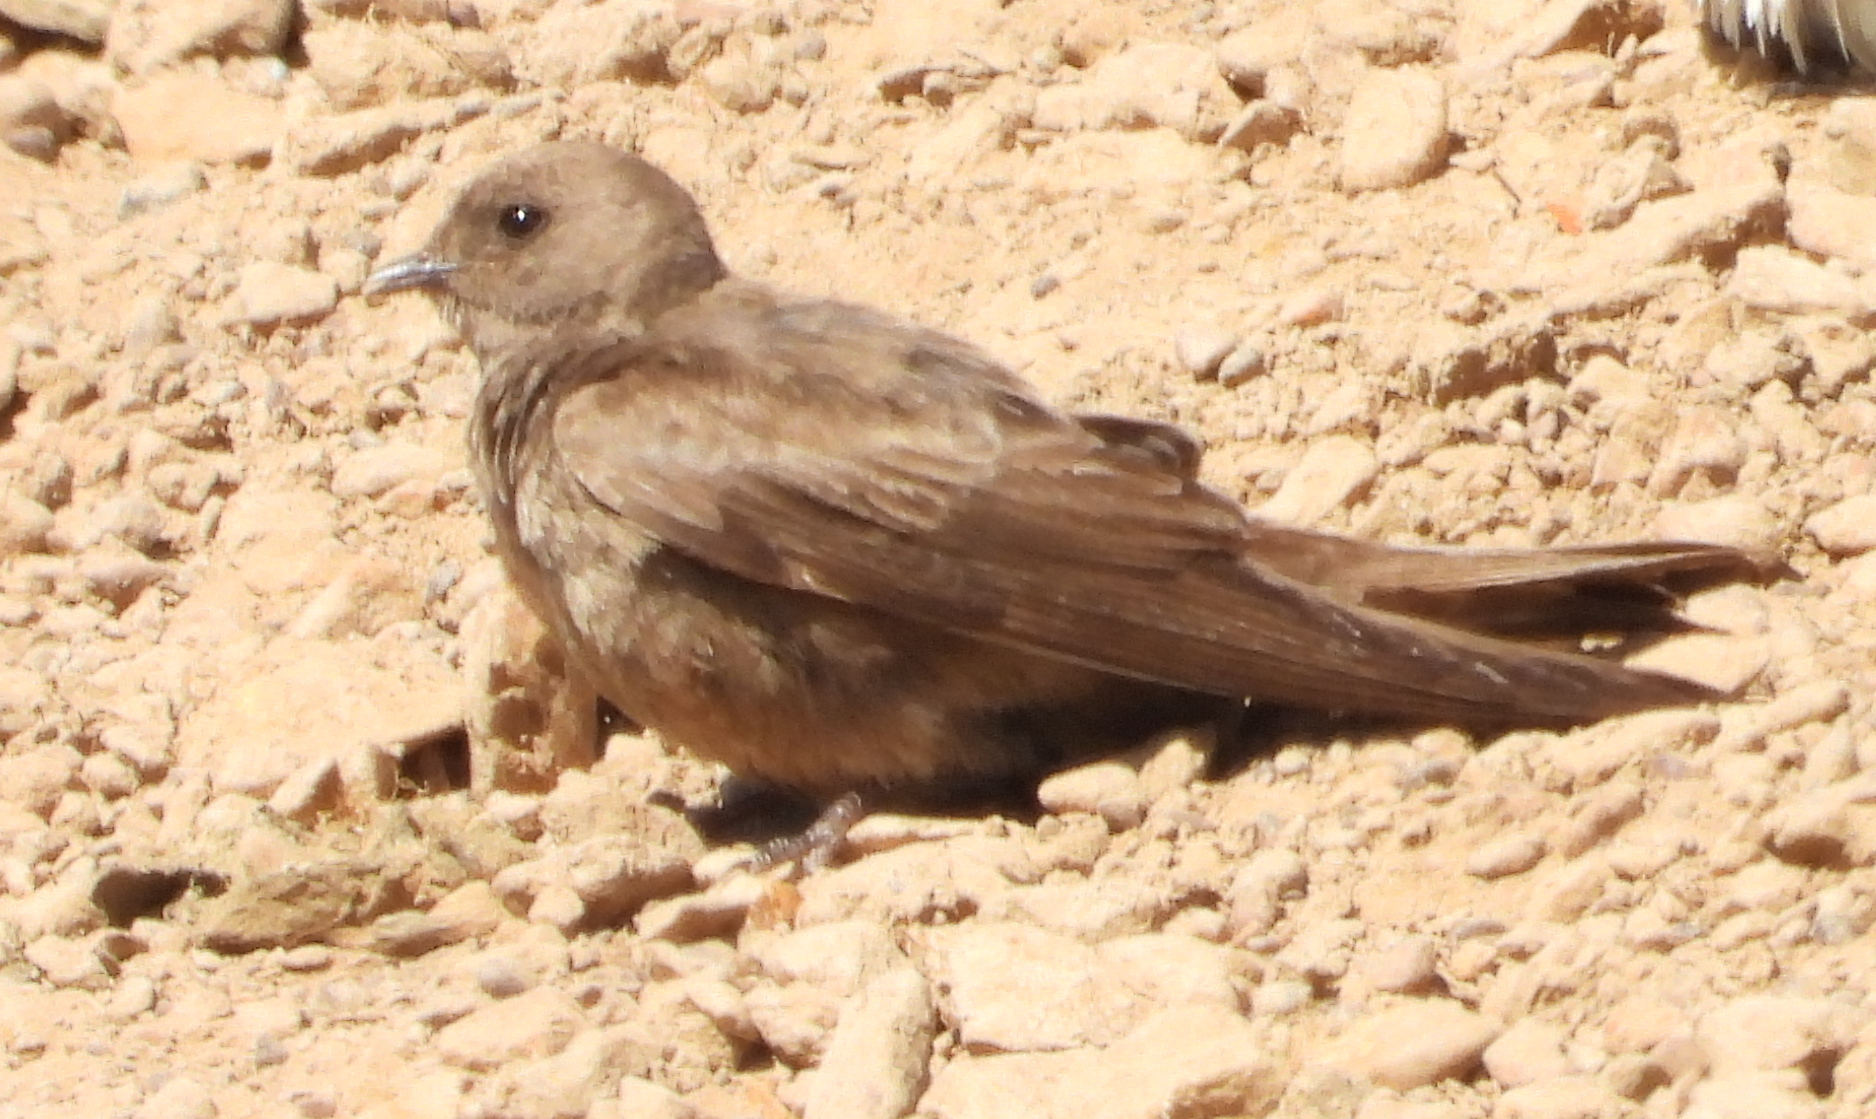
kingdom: Animalia
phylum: Chordata
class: Aves
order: Passeriformes
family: Hirundinidae
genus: Riparia
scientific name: Riparia paludicola
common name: Brown-throated martin
